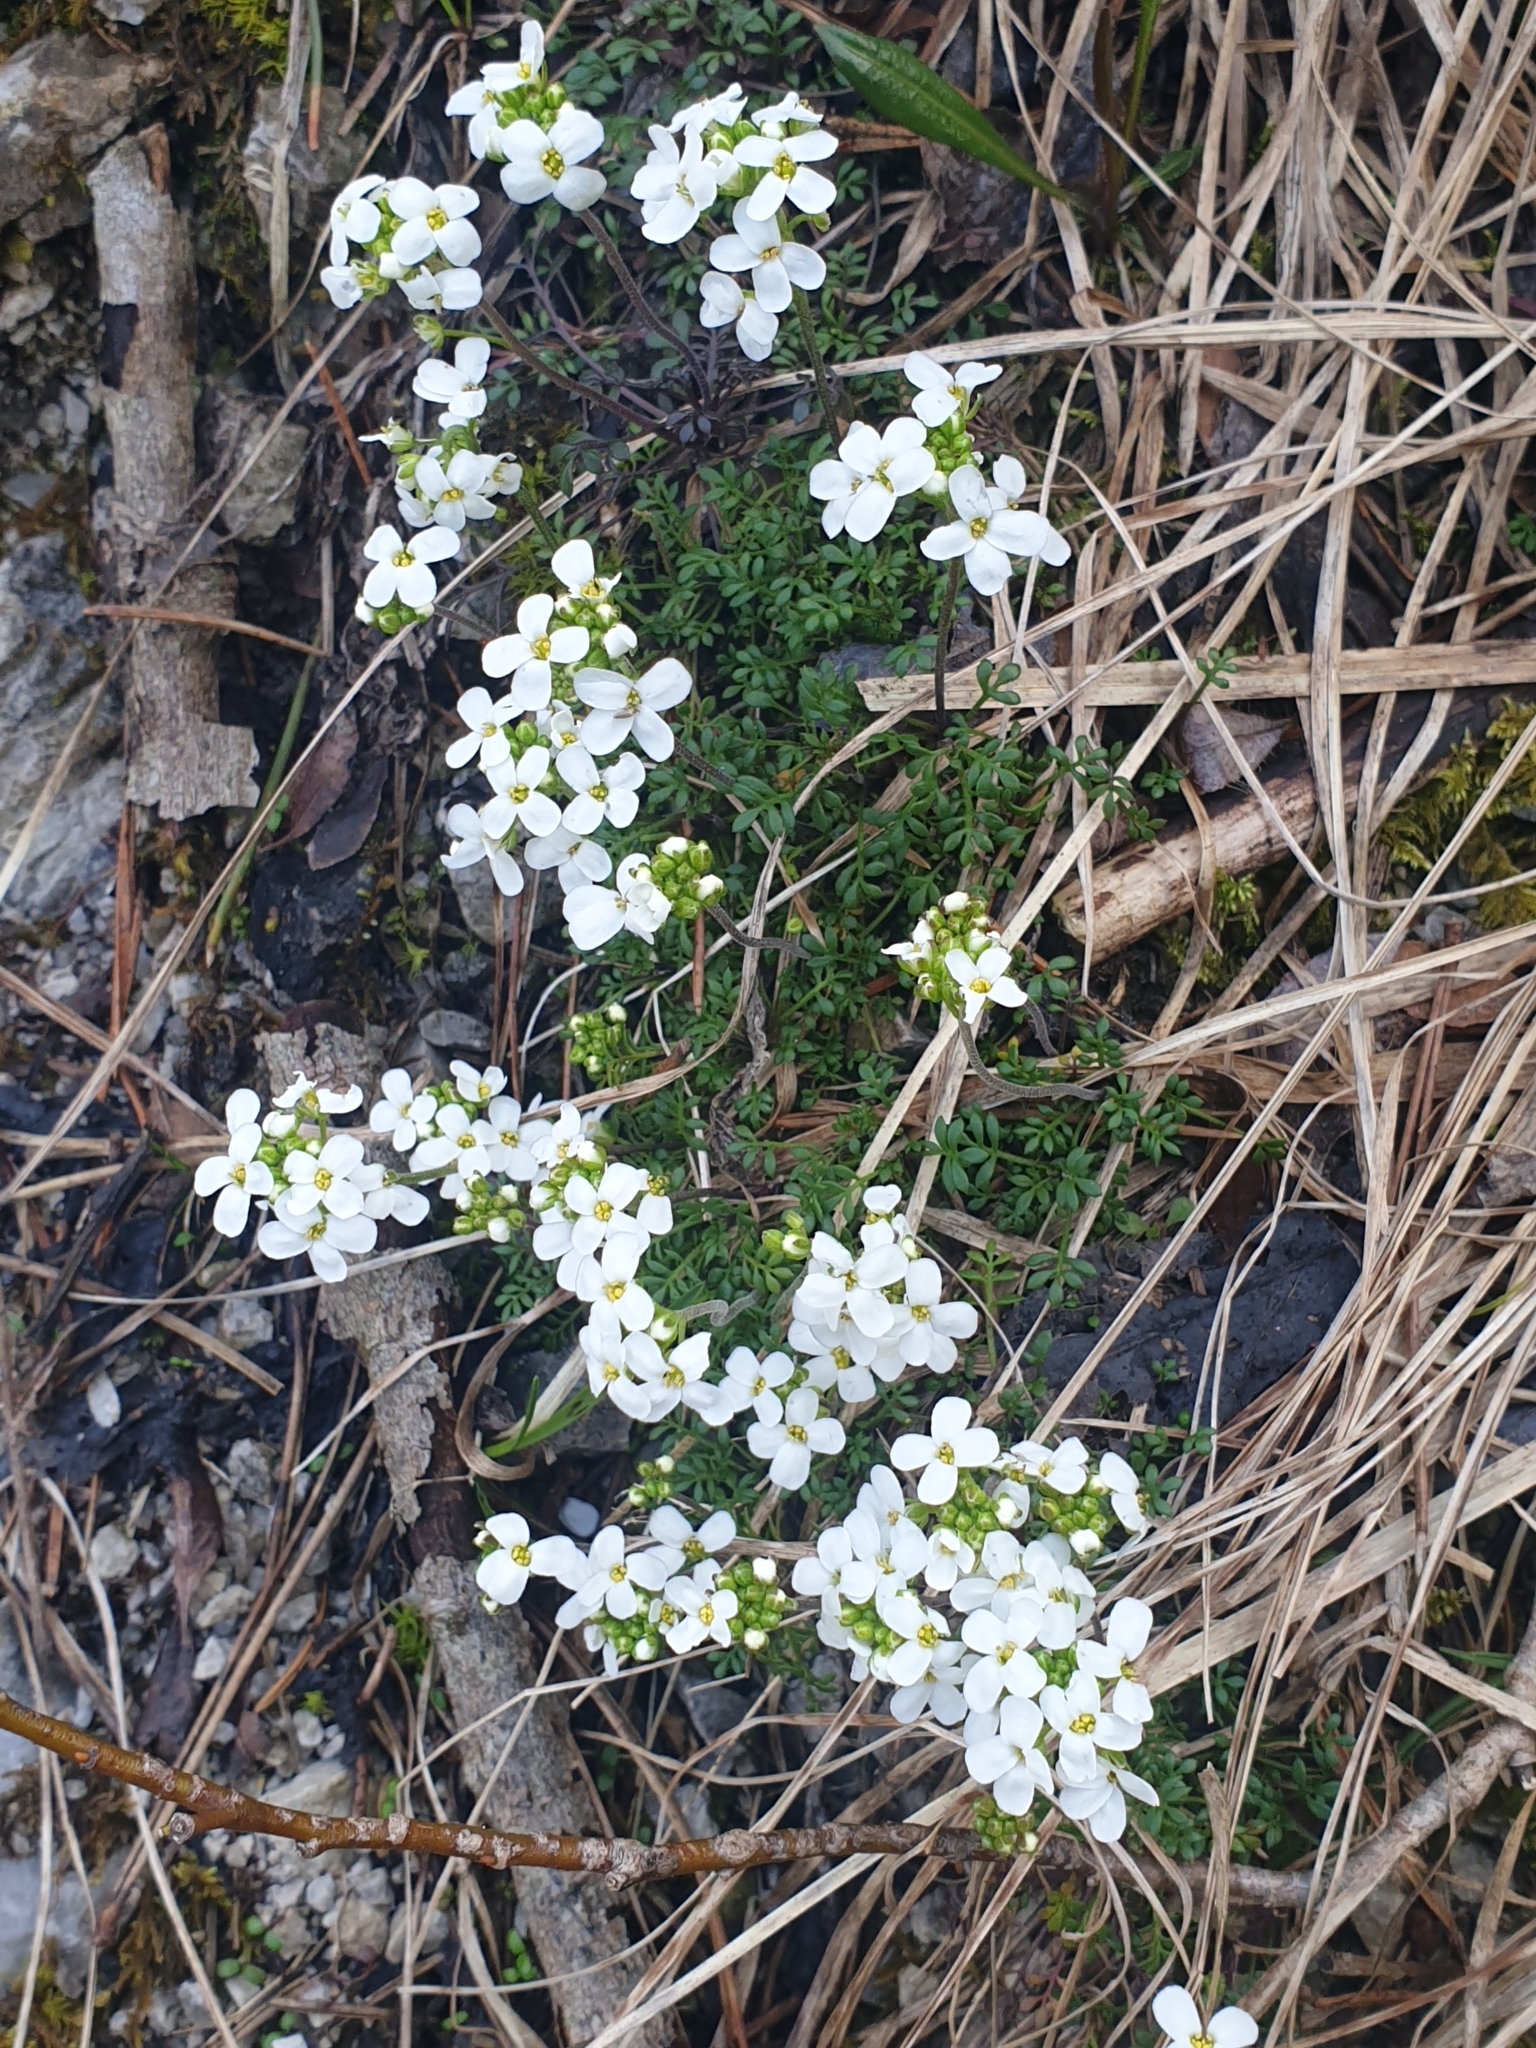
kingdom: Plantae
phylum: Tracheophyta
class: Magnoliopsida
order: Brassicales
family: Brassicaceae
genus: Hornungia
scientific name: Hornungia alpina
